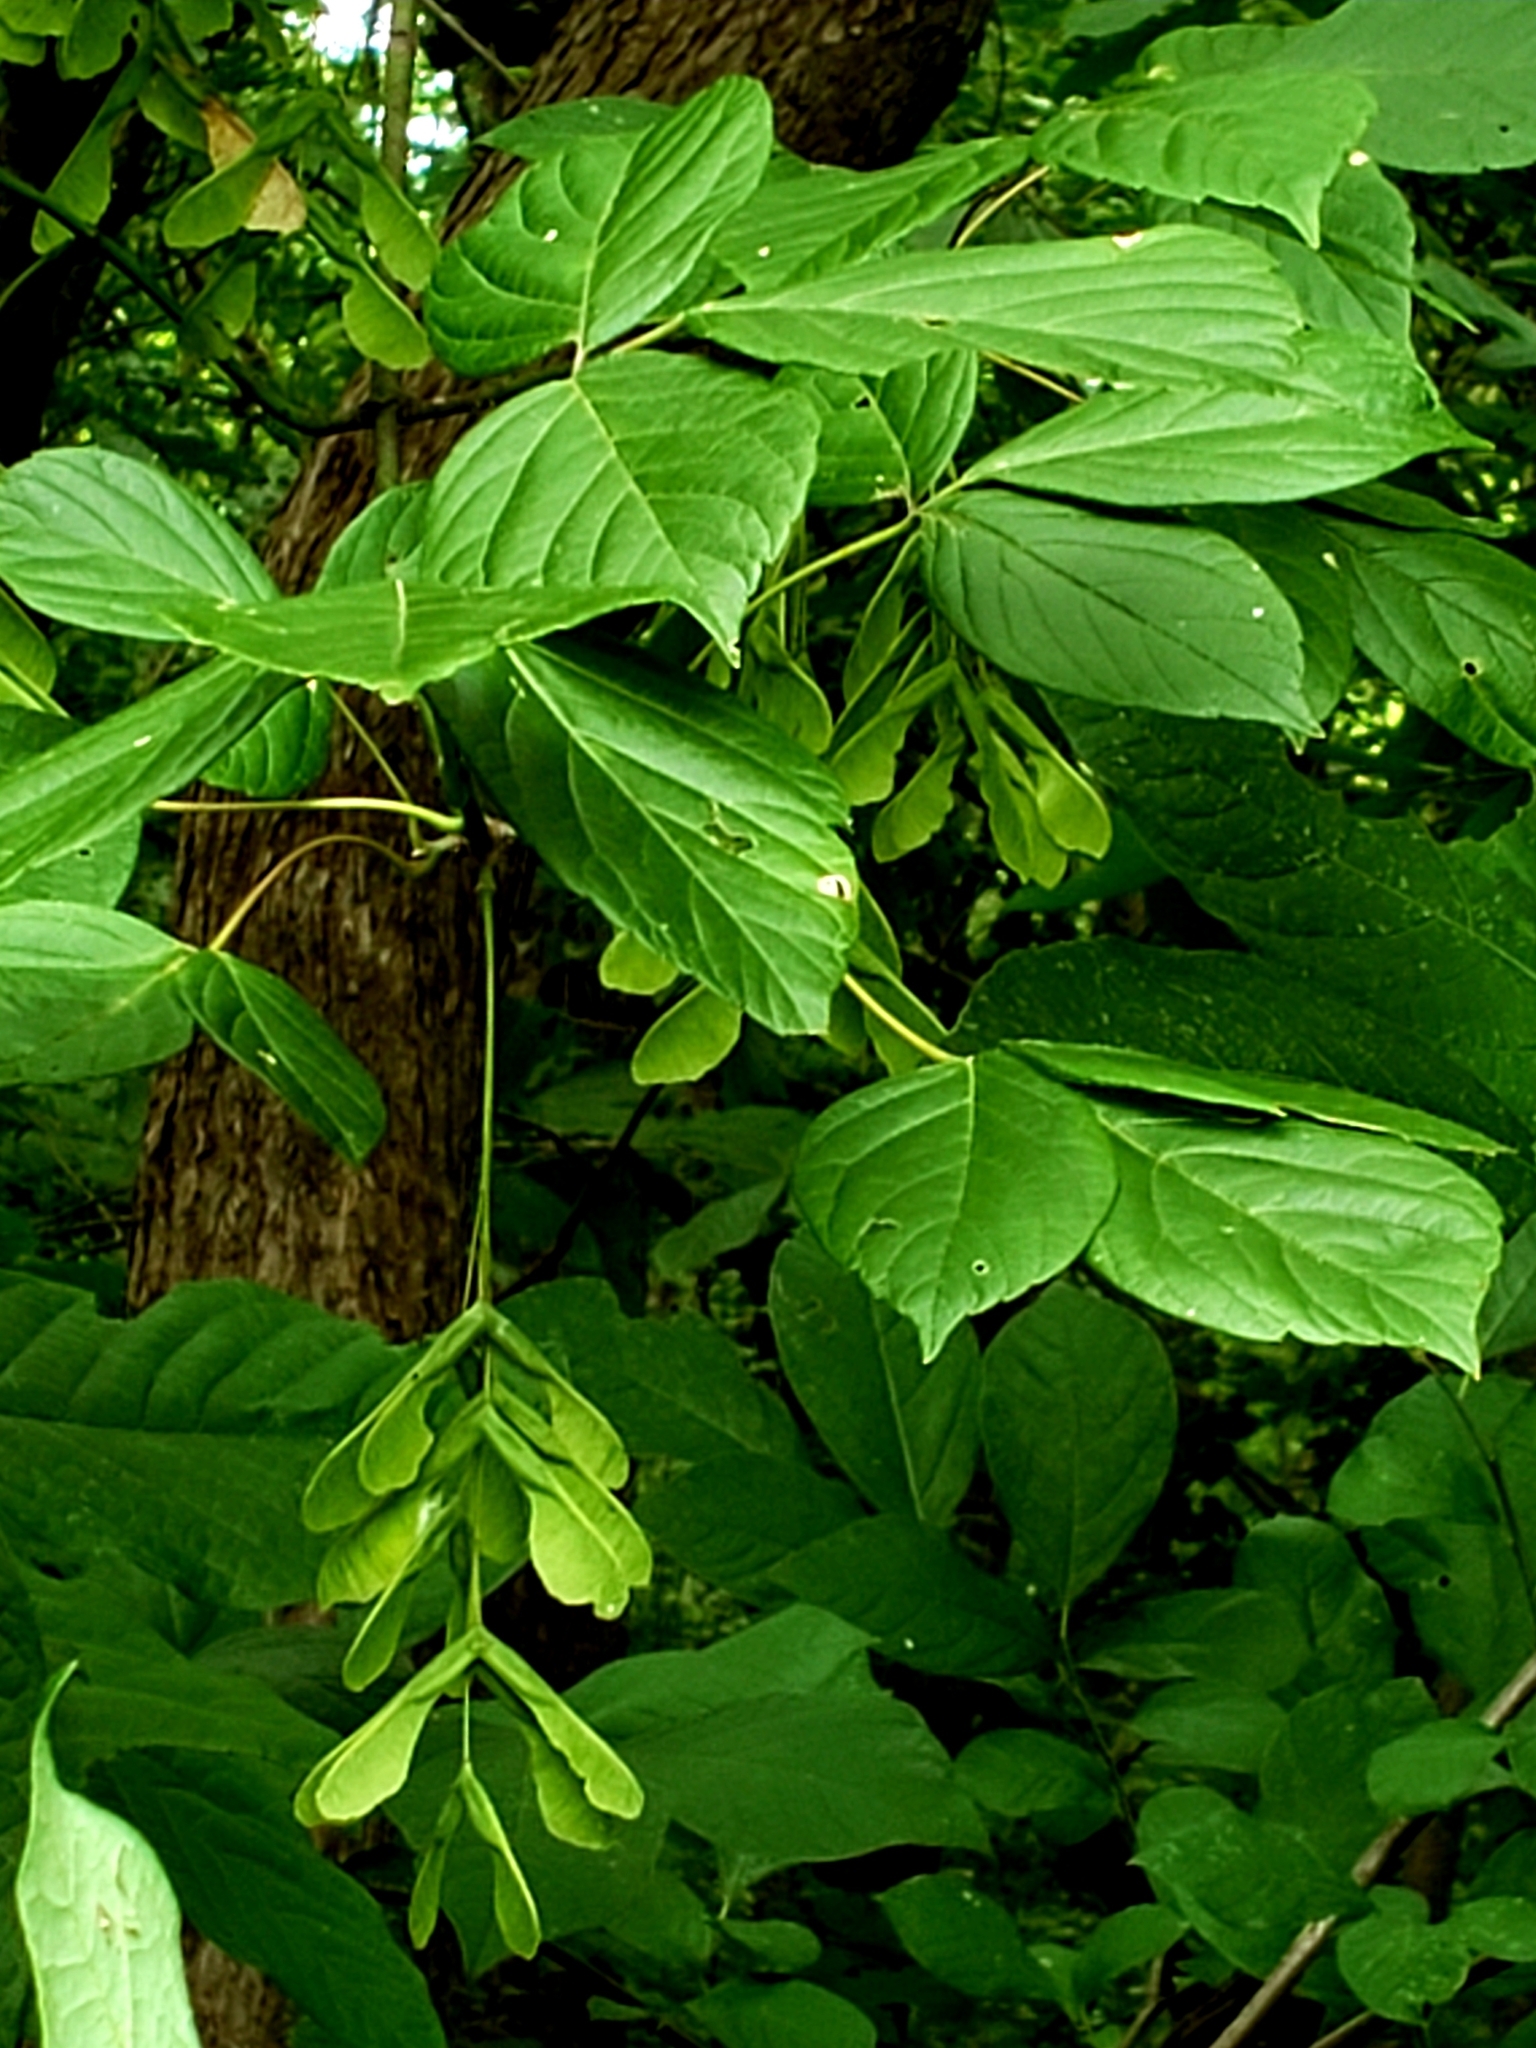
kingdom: Plantae
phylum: Tracheophyta
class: Magnoliopsida
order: Sapindales
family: Sapindaceae
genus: Acer
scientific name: Acer negundo
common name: Ashleaf maple
